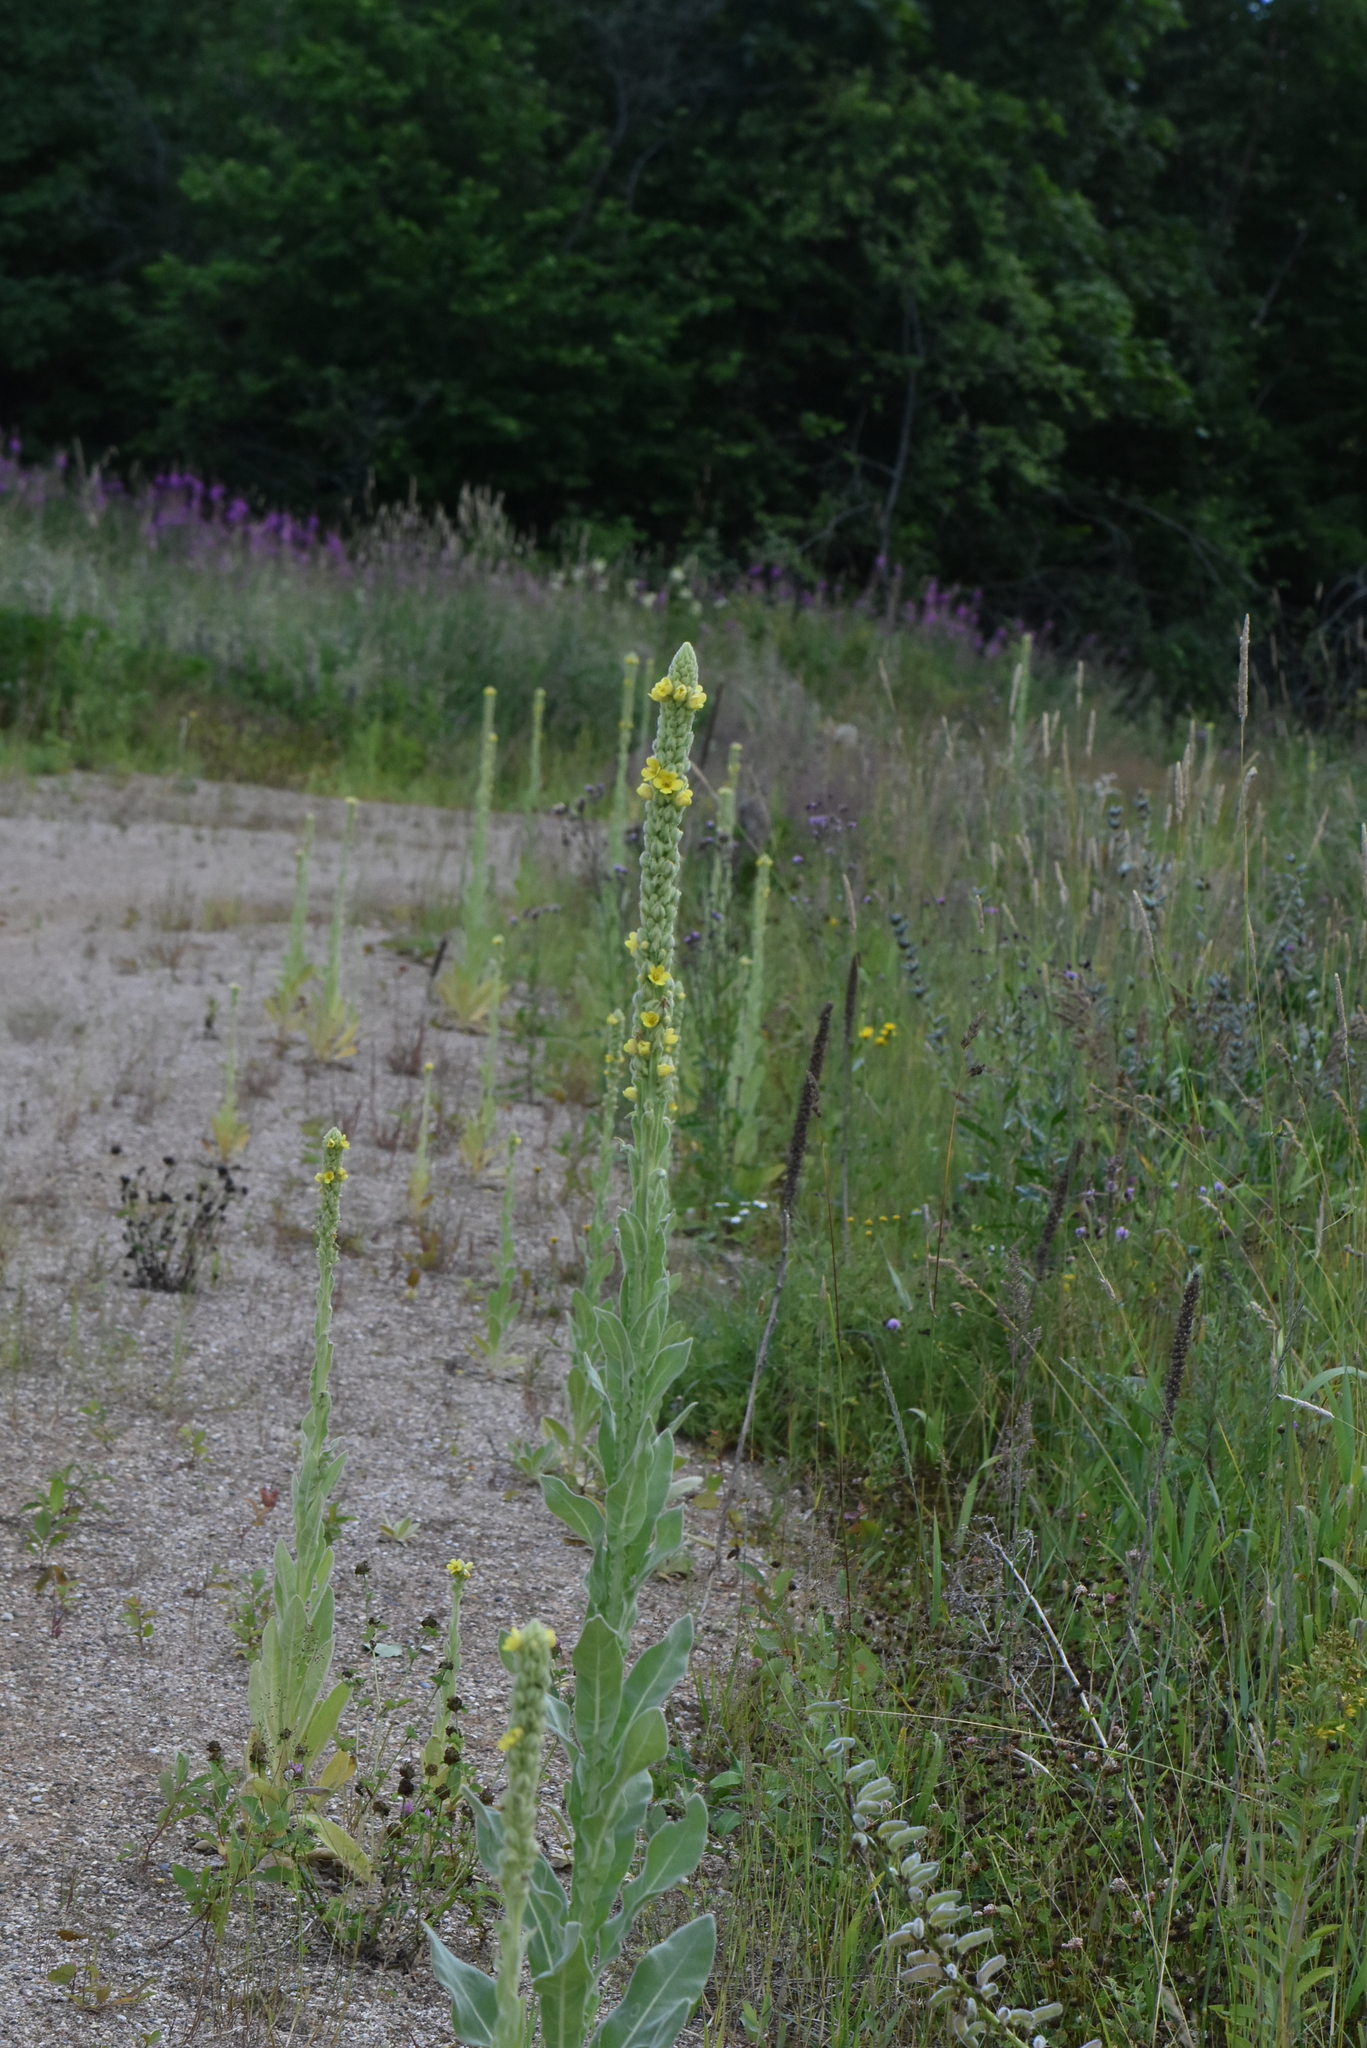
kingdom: Plantae
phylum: Tracheophyta
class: Magnoliopsida
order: Lamiales
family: Scrophulariaceae
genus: Verbascum
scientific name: Verbascum thapsus
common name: Common mullein
